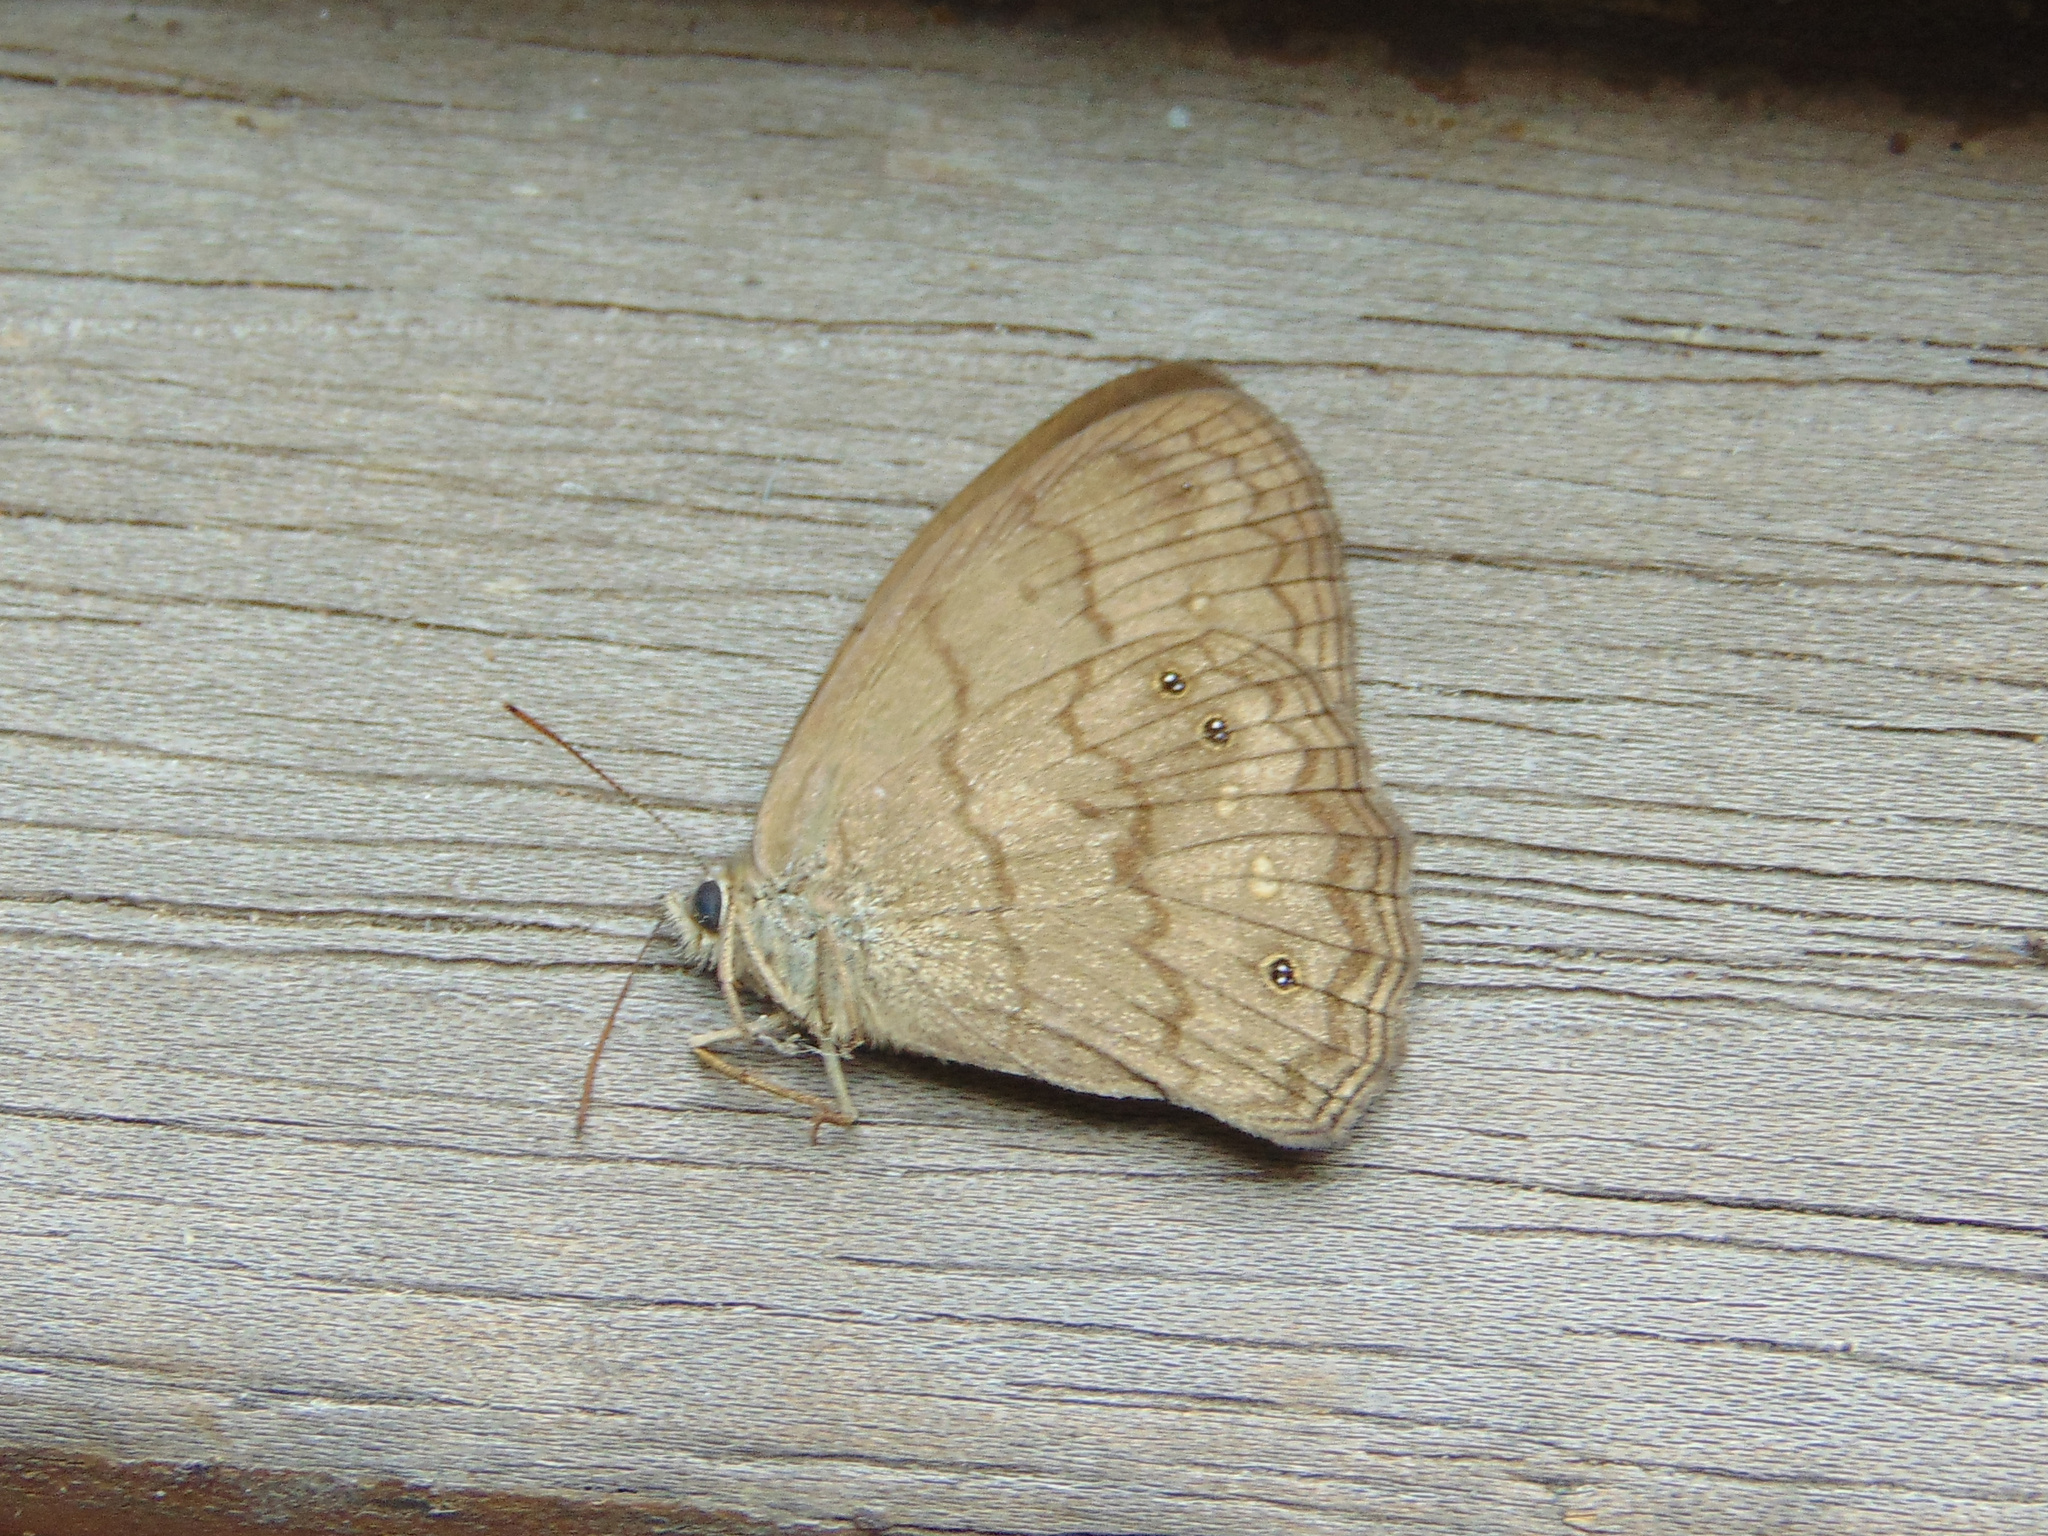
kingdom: Animalia
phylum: Arthropoda
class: Insecta
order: Lepidoptera
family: Nymphalidae
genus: Malaveria
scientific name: Malaveria
